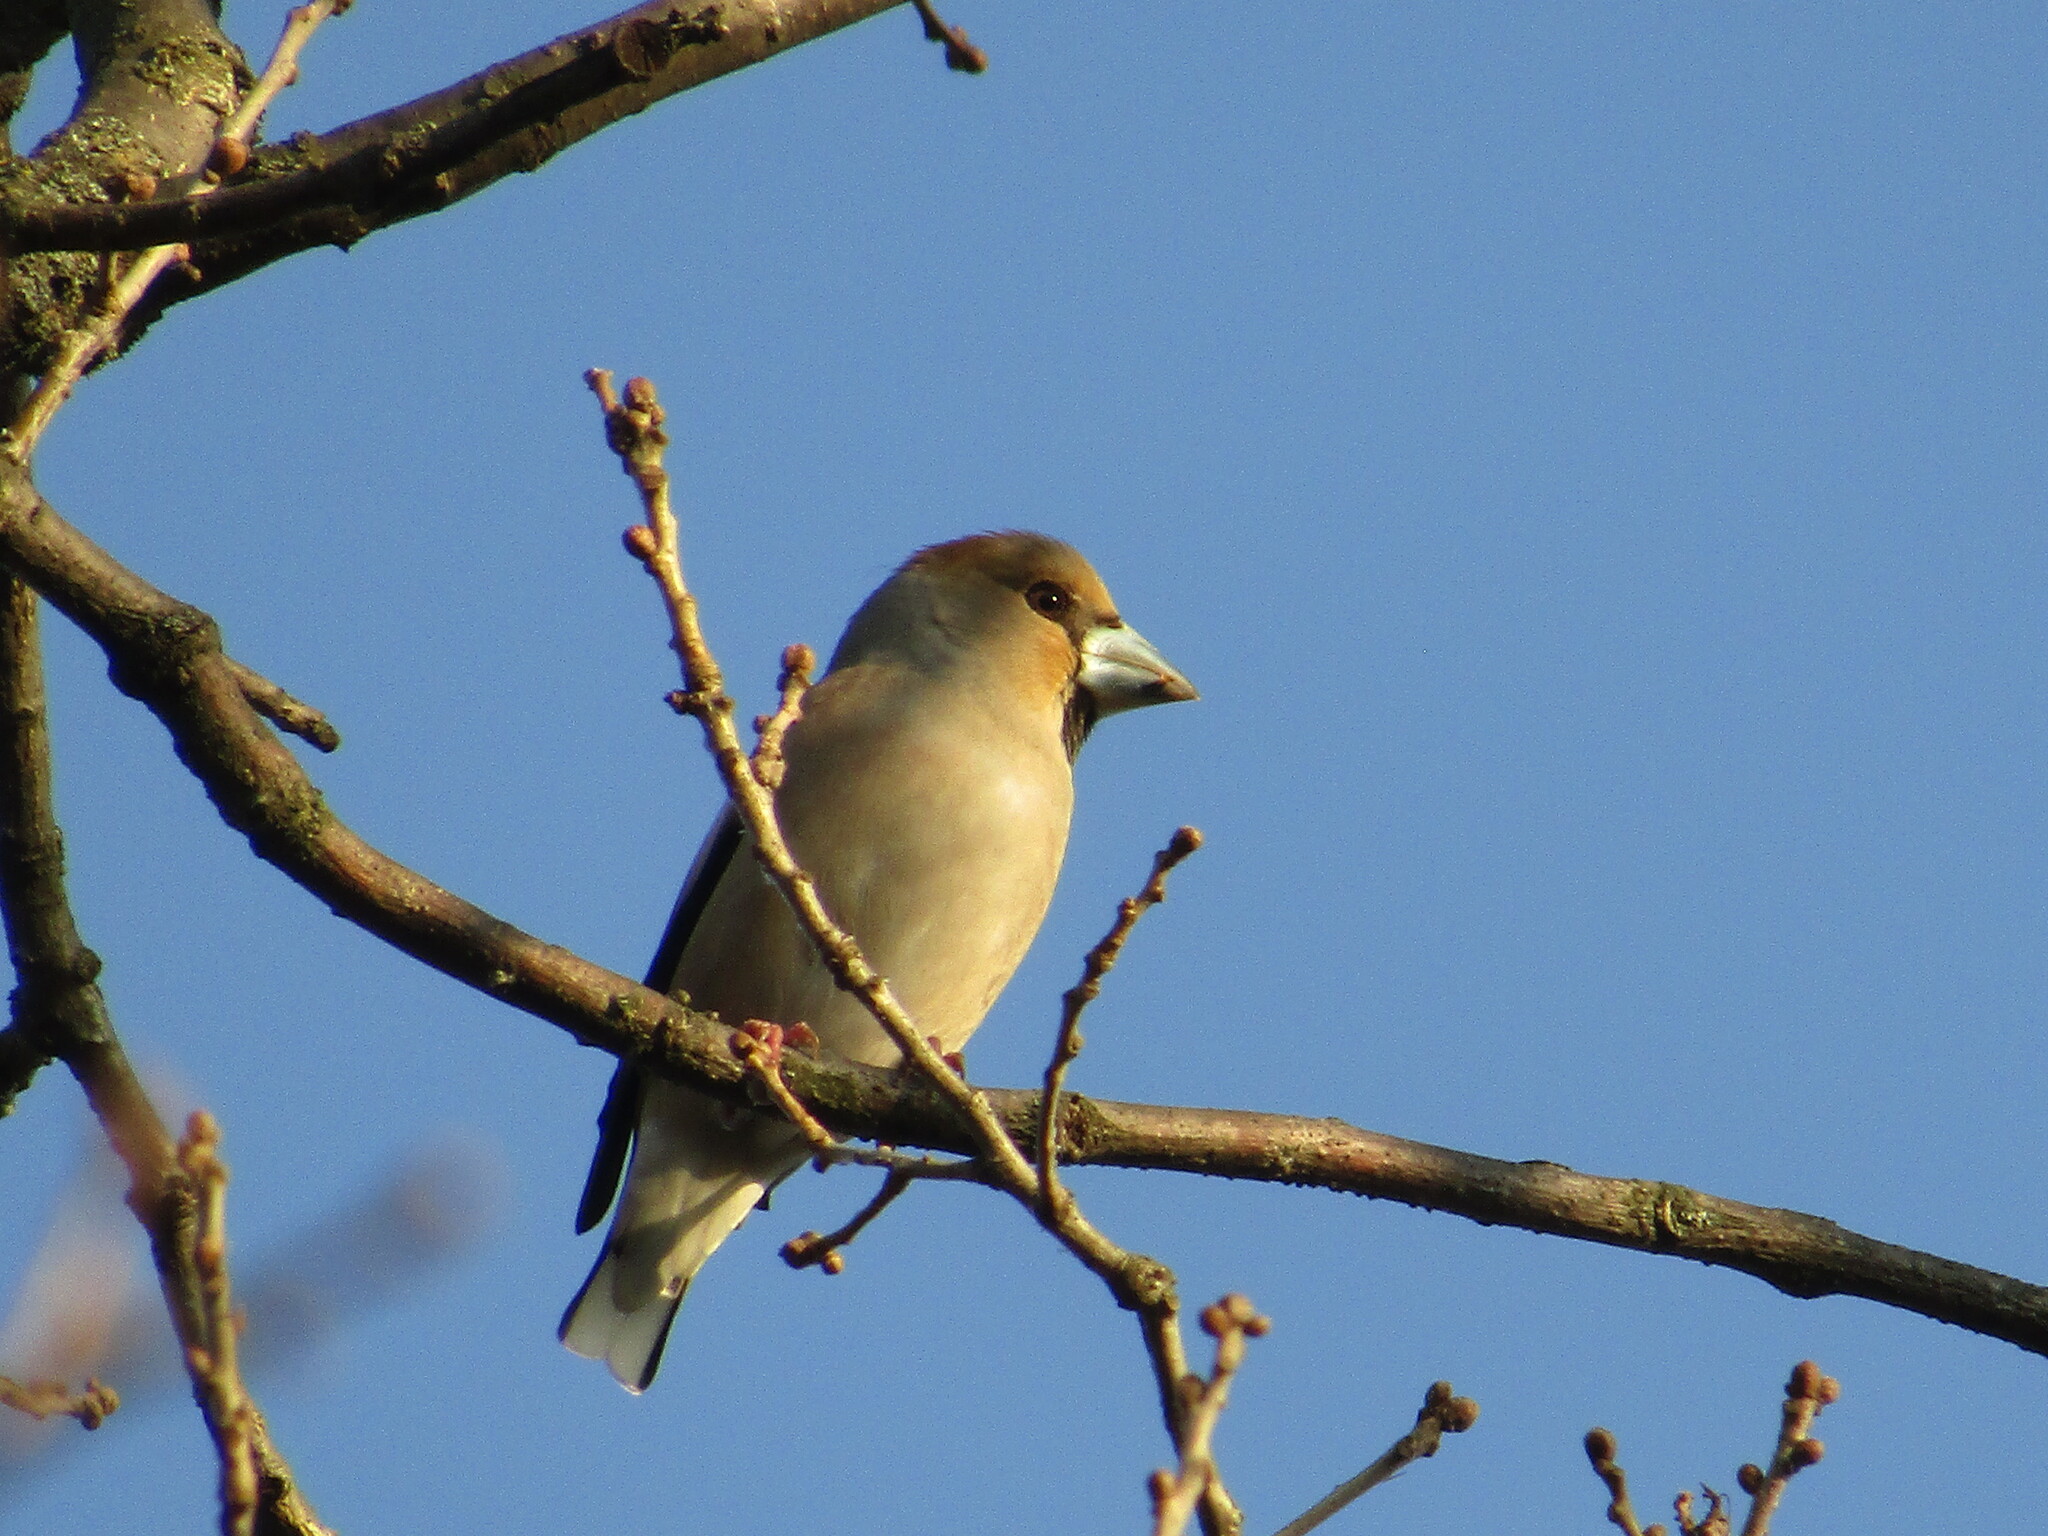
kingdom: Animalia
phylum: Chordata
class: Aves
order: Passeriformes
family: Fringillidae
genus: Coccothraustes
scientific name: Coccothraustes coccothraustes
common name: Hawfinch
